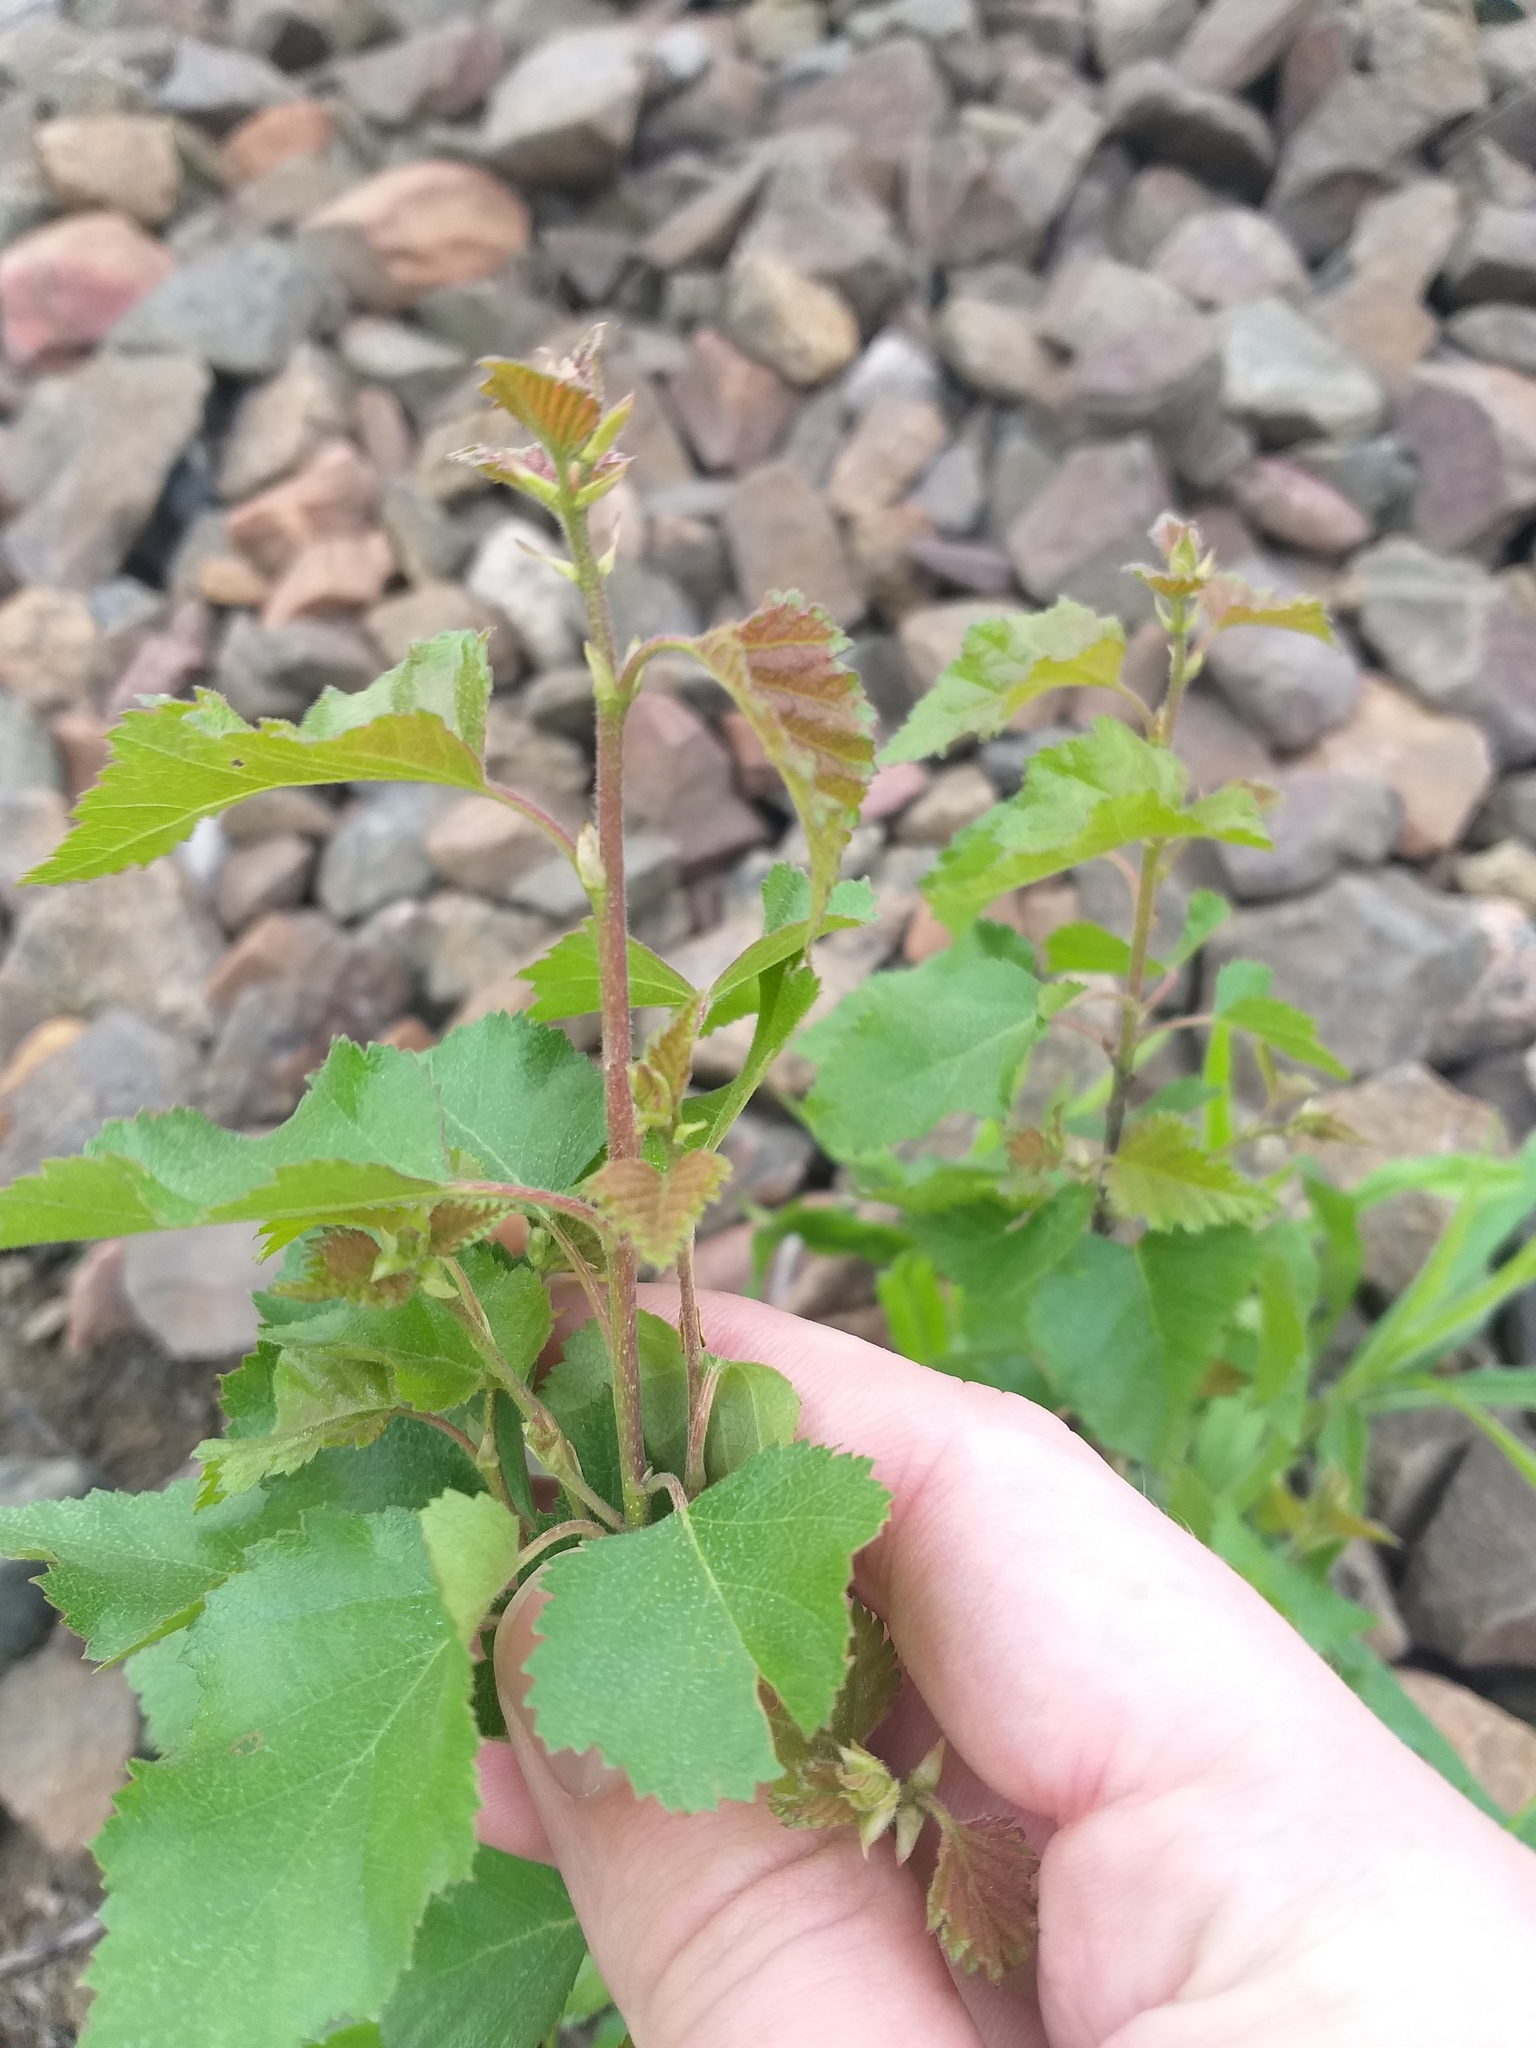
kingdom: Plantae
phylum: Tracheophyta
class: Magnoliopsida
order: Fagales
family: Betulaceae
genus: Betula
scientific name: Betula pubescens
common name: Downy birch
